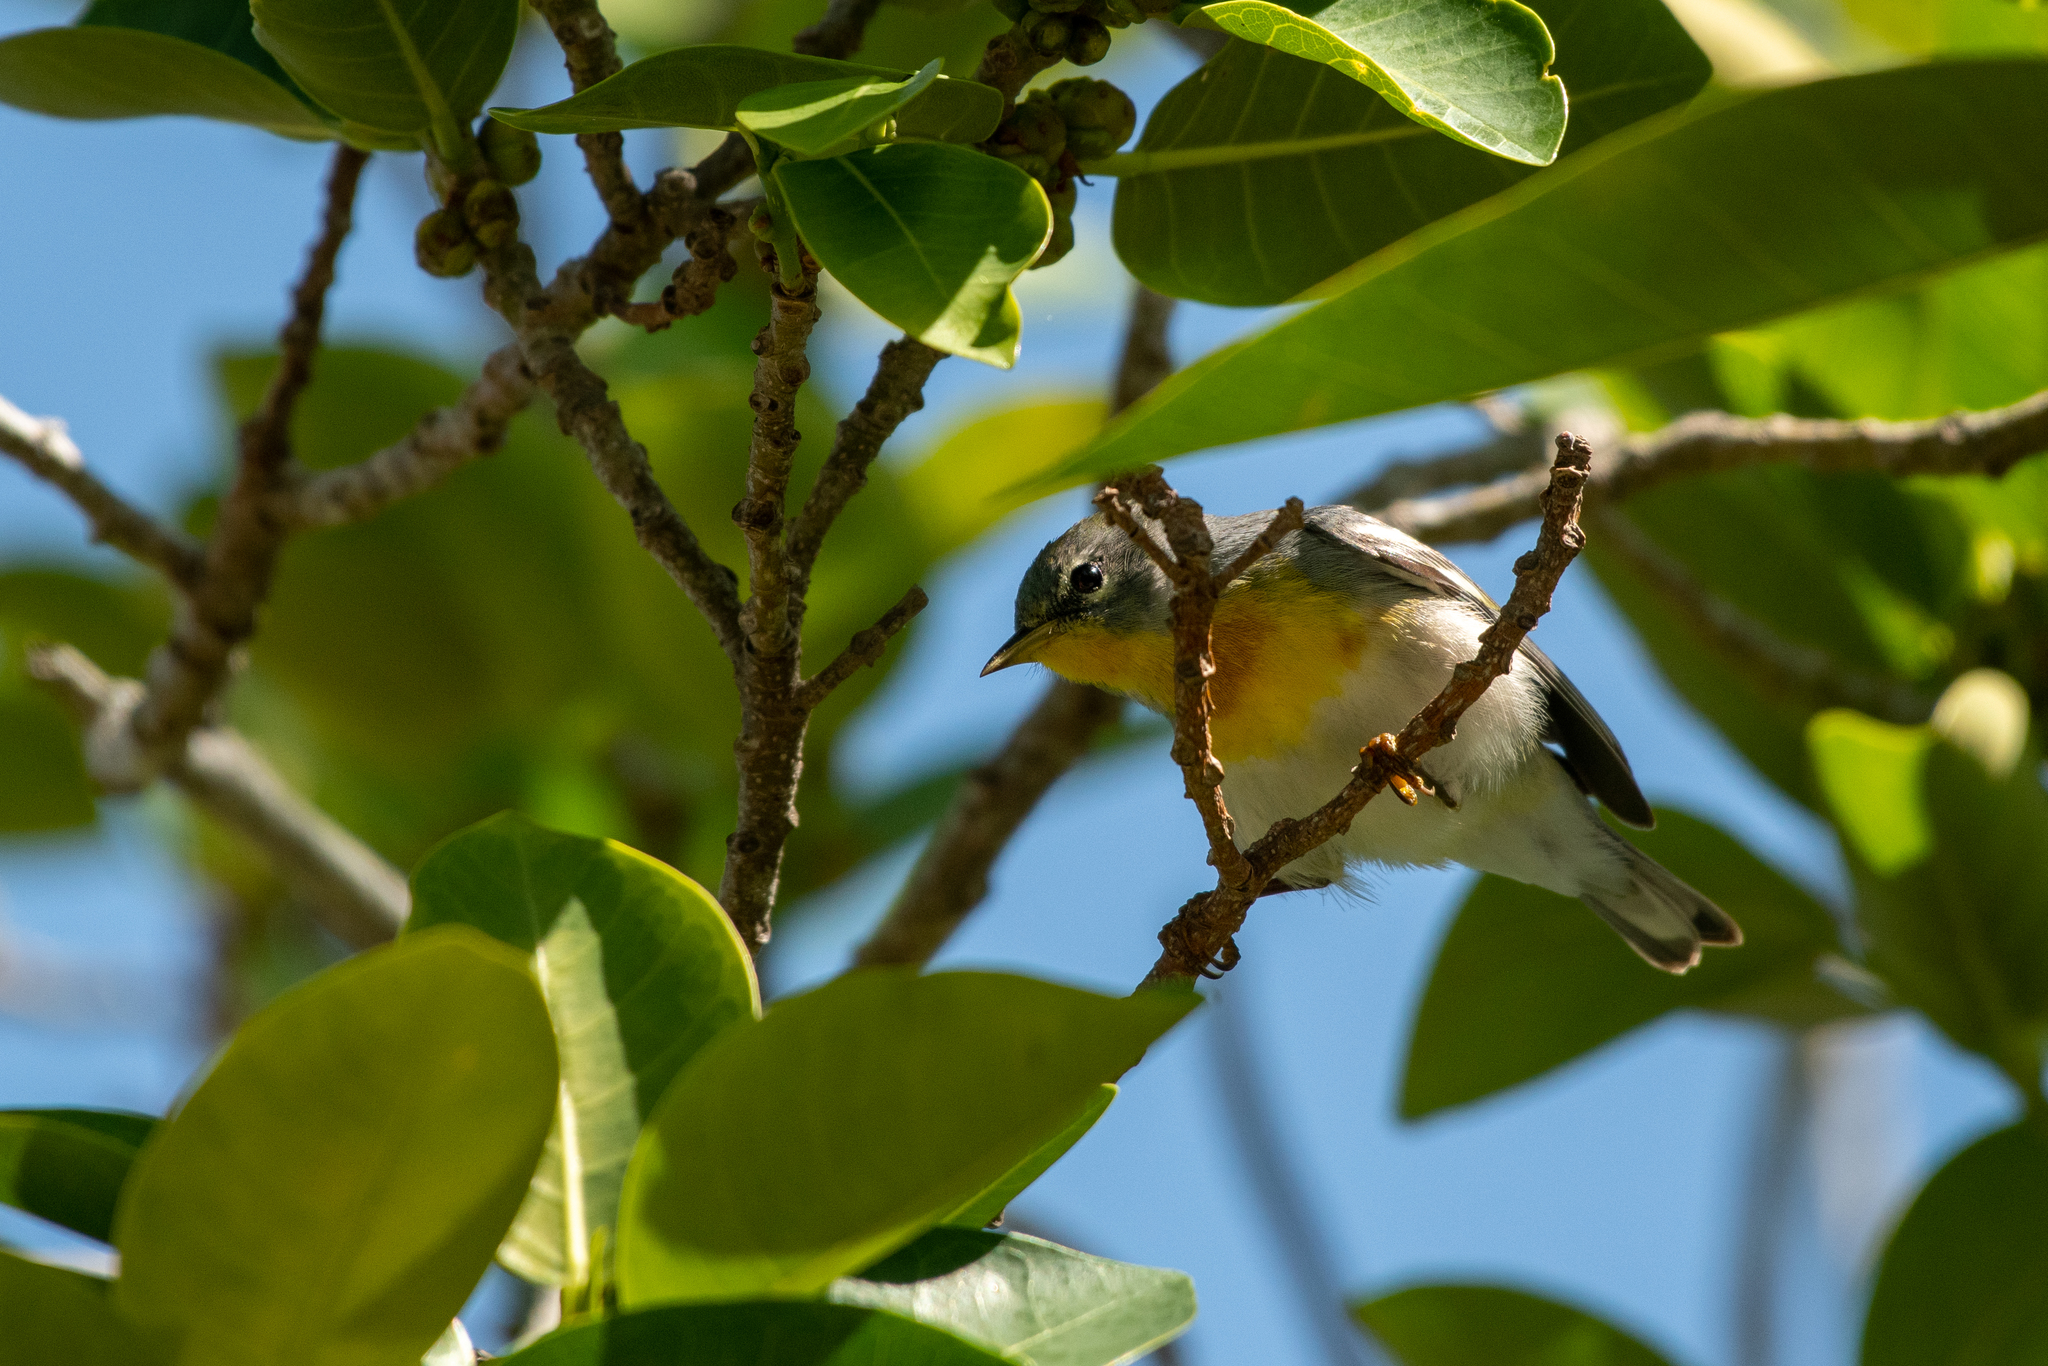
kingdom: Animalia
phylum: Chordata
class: Aves
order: Passeriformes
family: Parulidae
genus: Setophaga
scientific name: Setophaga americana
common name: Northern parula
